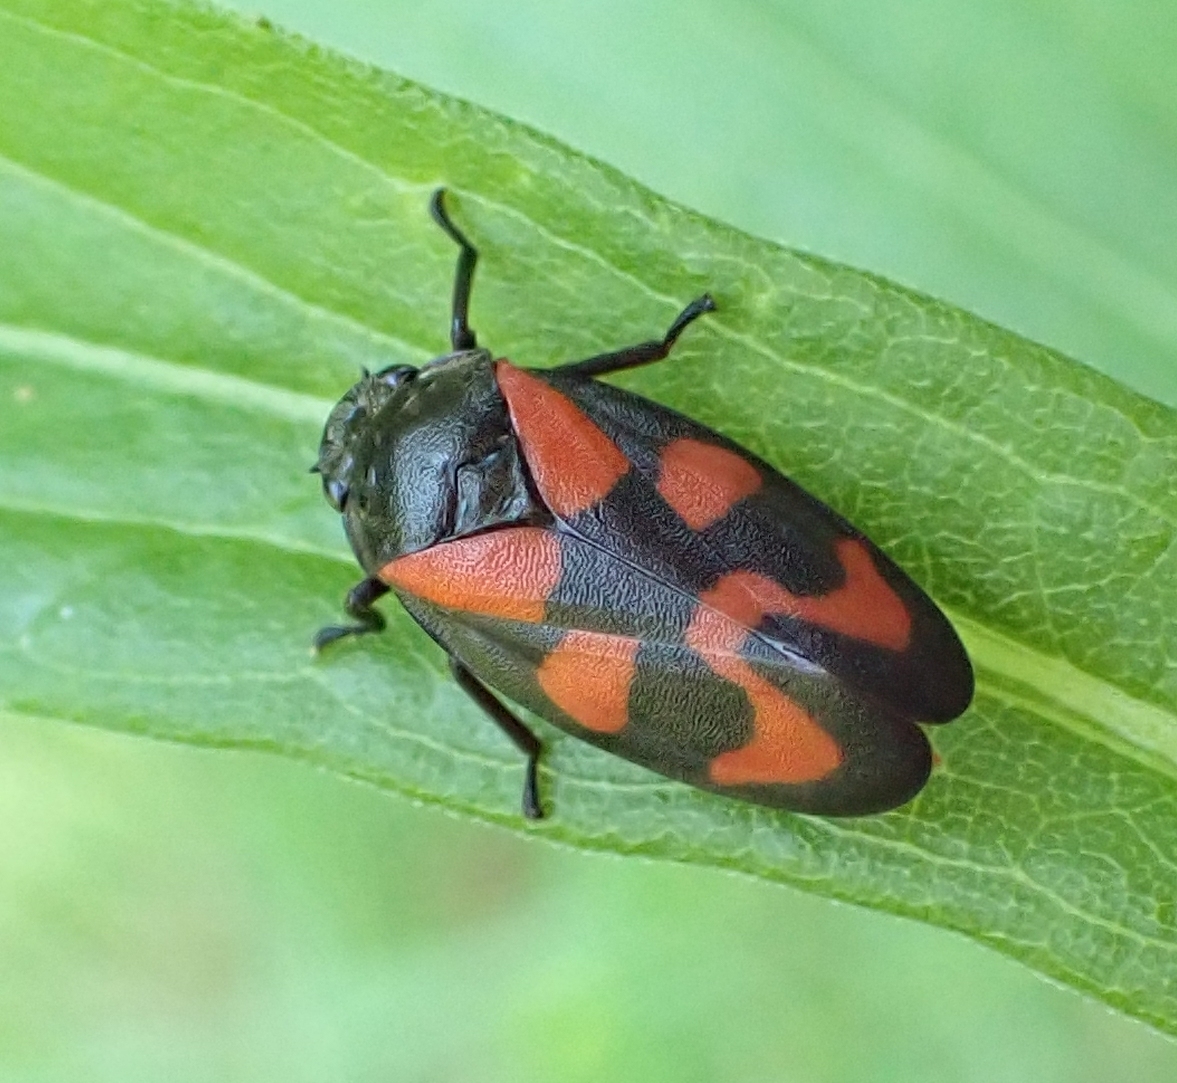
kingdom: Animalia
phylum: Arthropoda
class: Insecta
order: Hemiptera
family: Cercopidae
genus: Cercopis
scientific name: Cercopis vulnerata
